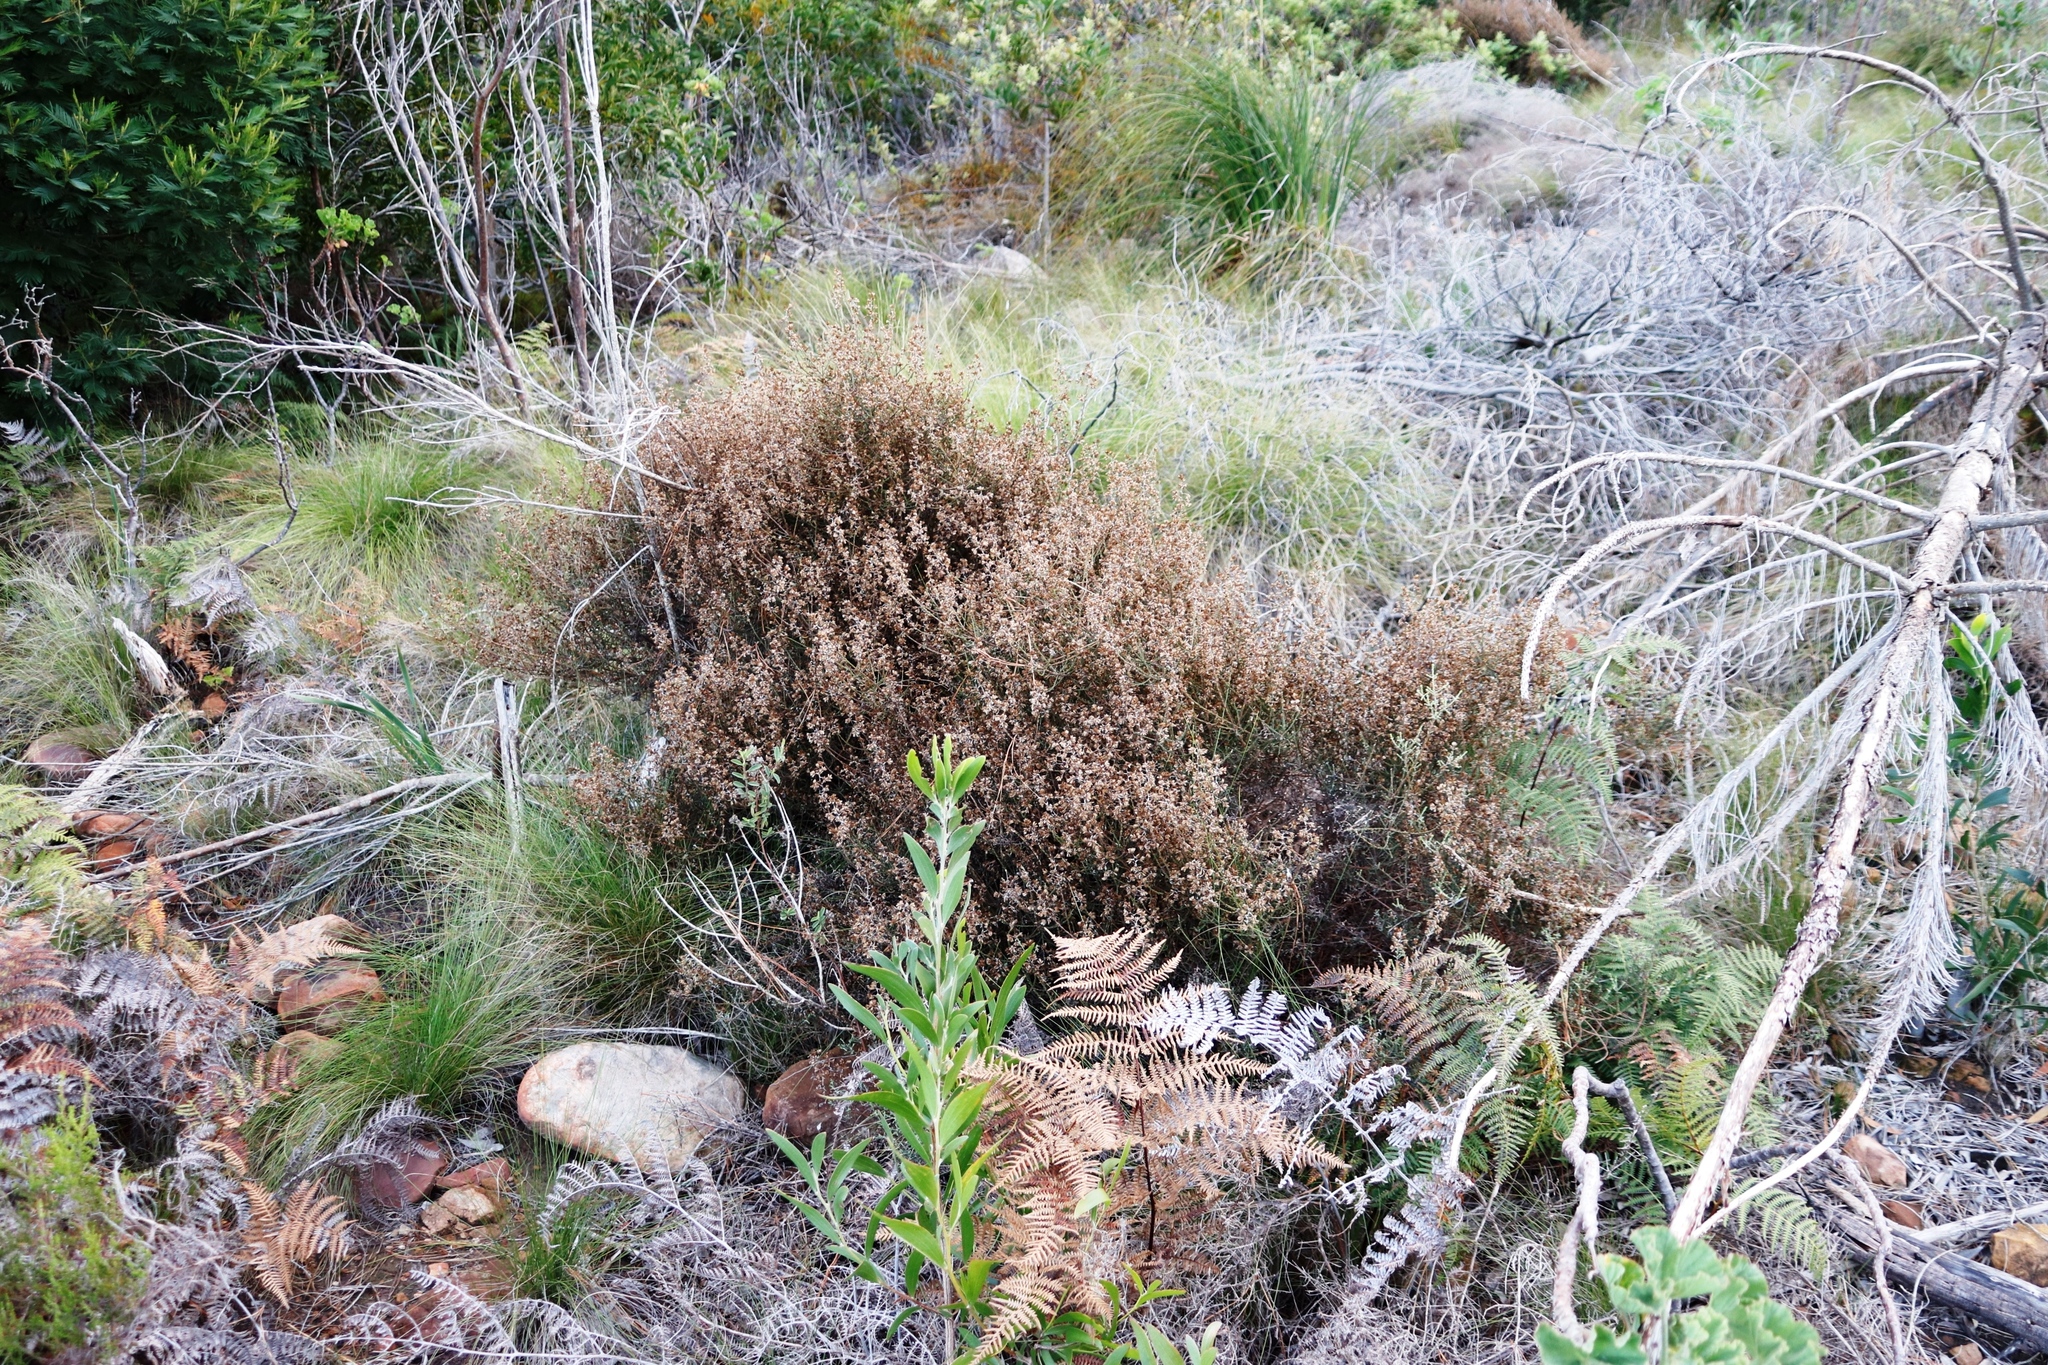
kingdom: Plantae
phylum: Tracheophyta
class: Magnoliopsida
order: Asterales
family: Asteraceae
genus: Myrovernix
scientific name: Myrovernix scaber
